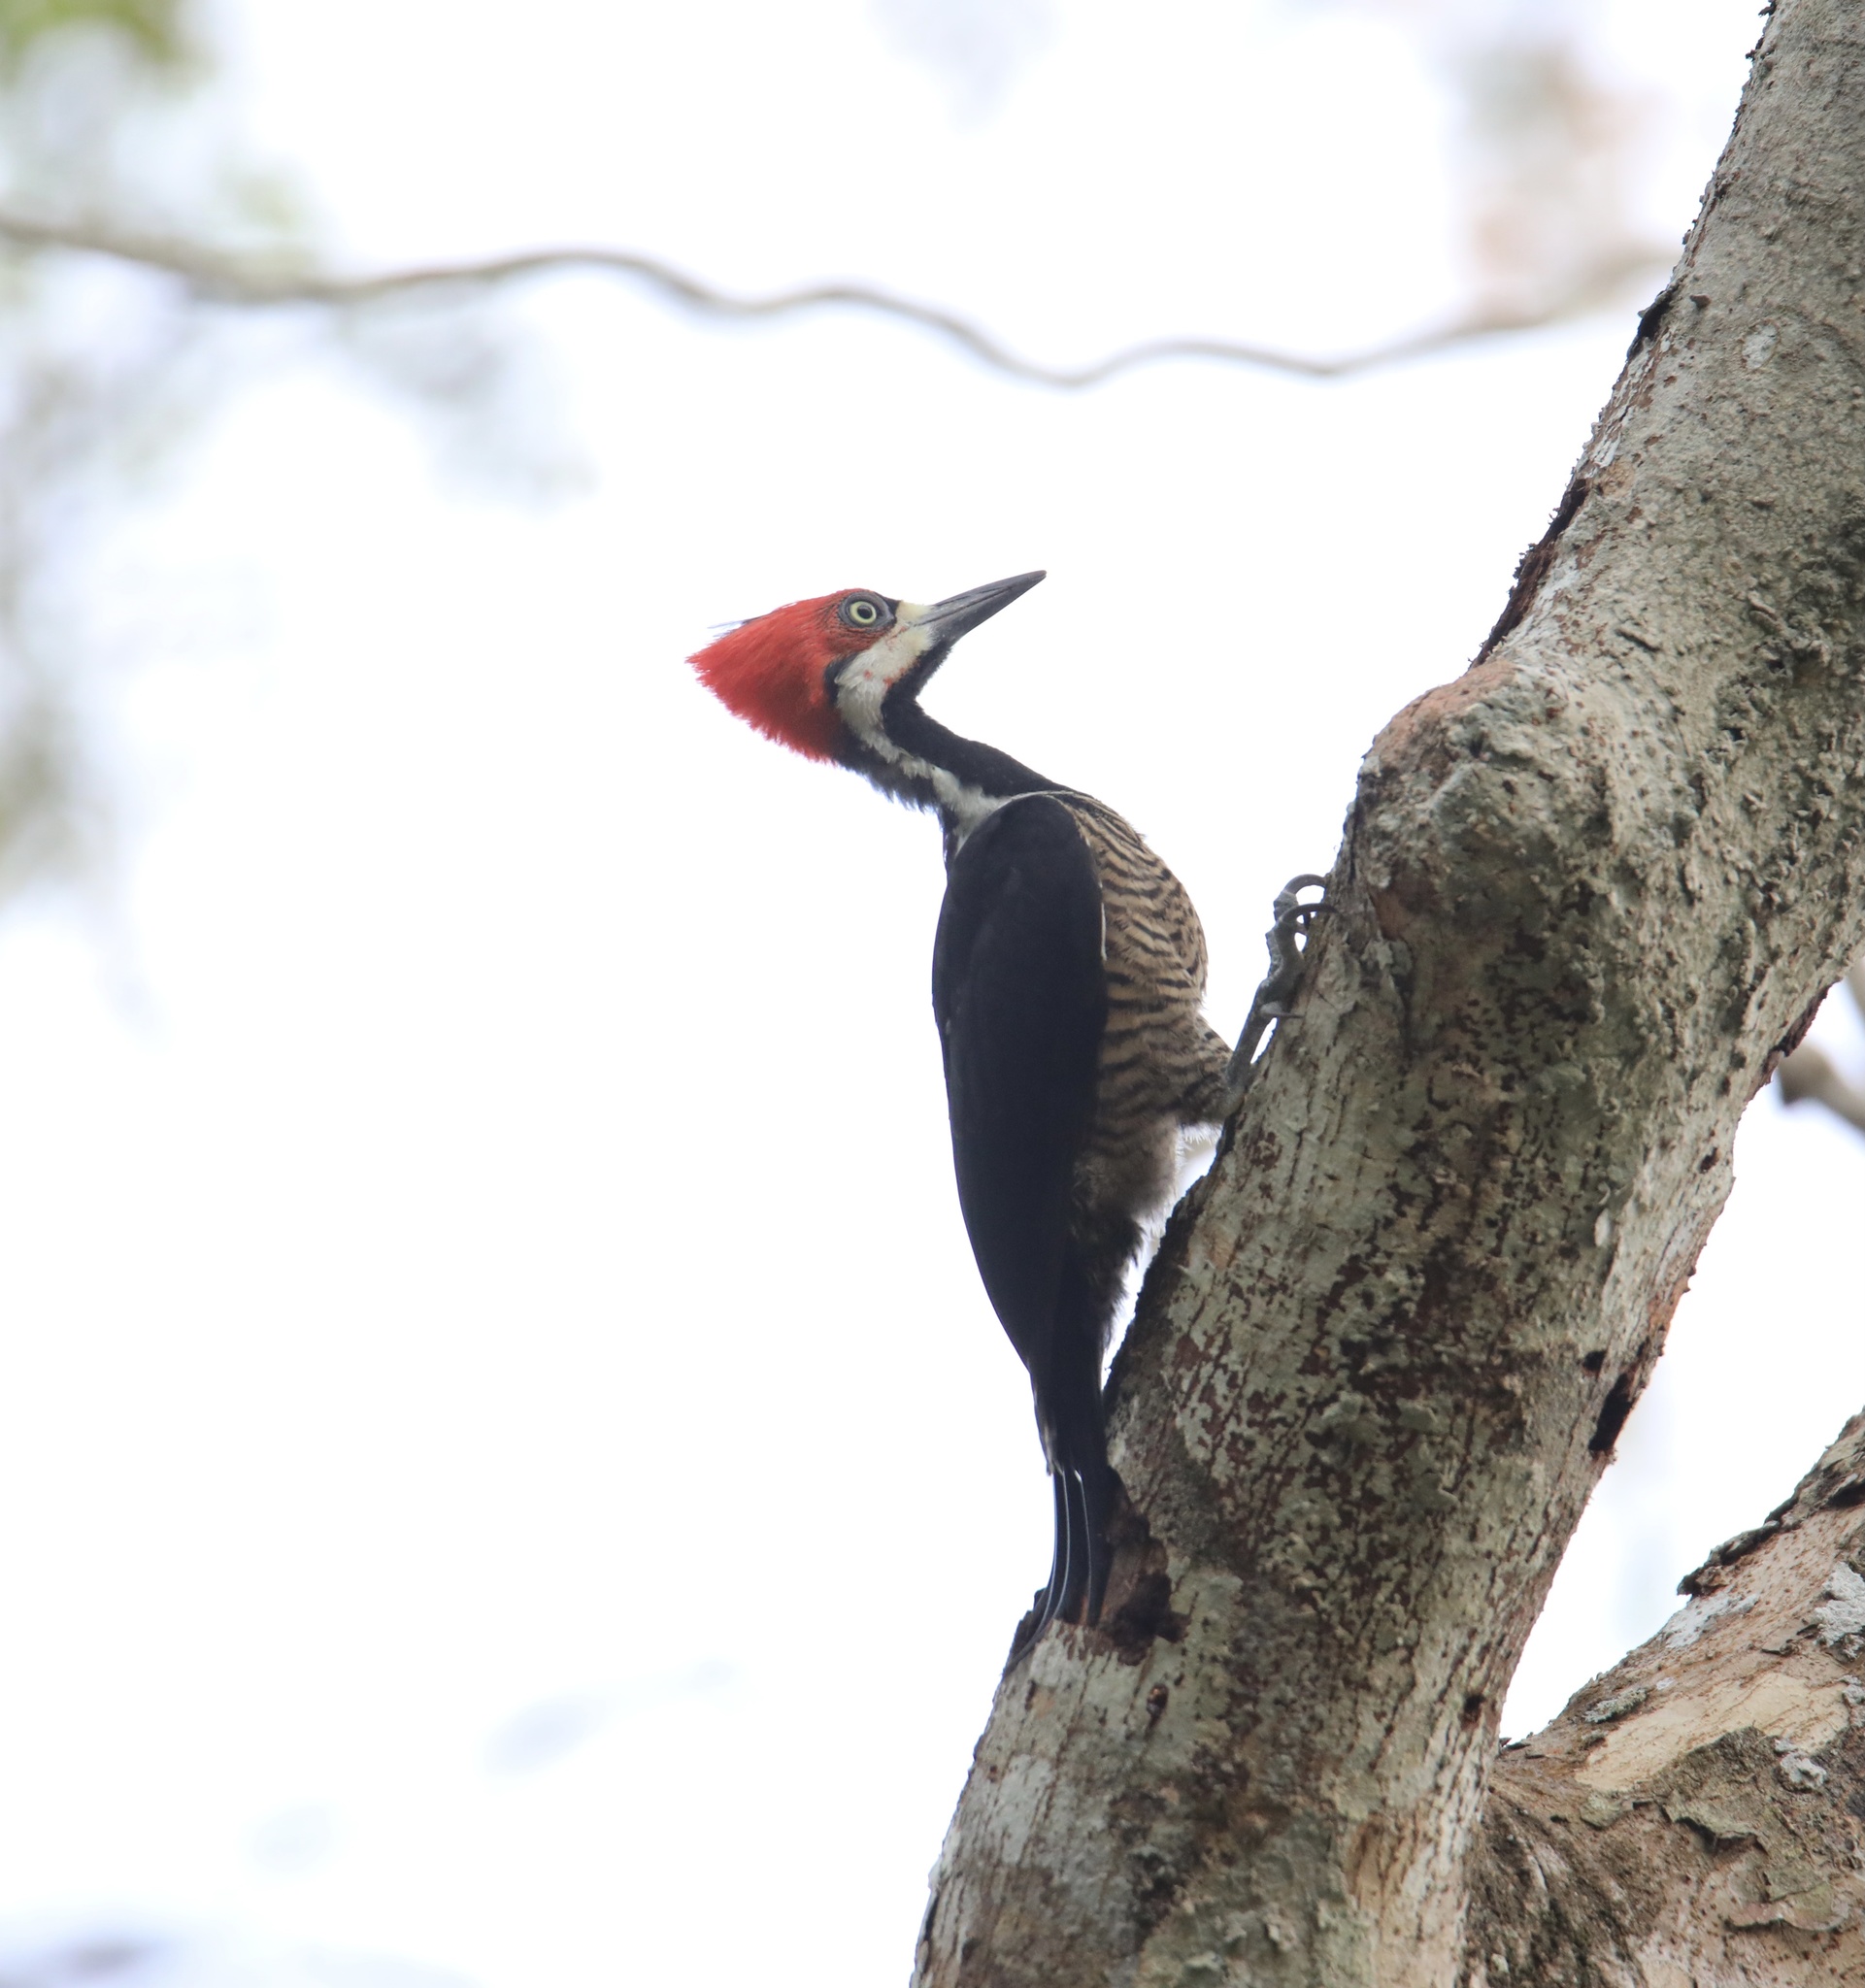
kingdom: Animalia
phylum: Chordata
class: Aves
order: Piciformes
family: Picidae
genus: Campephilus
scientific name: Campephilus melanoleucos
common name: Crimson-crested woodpecker
